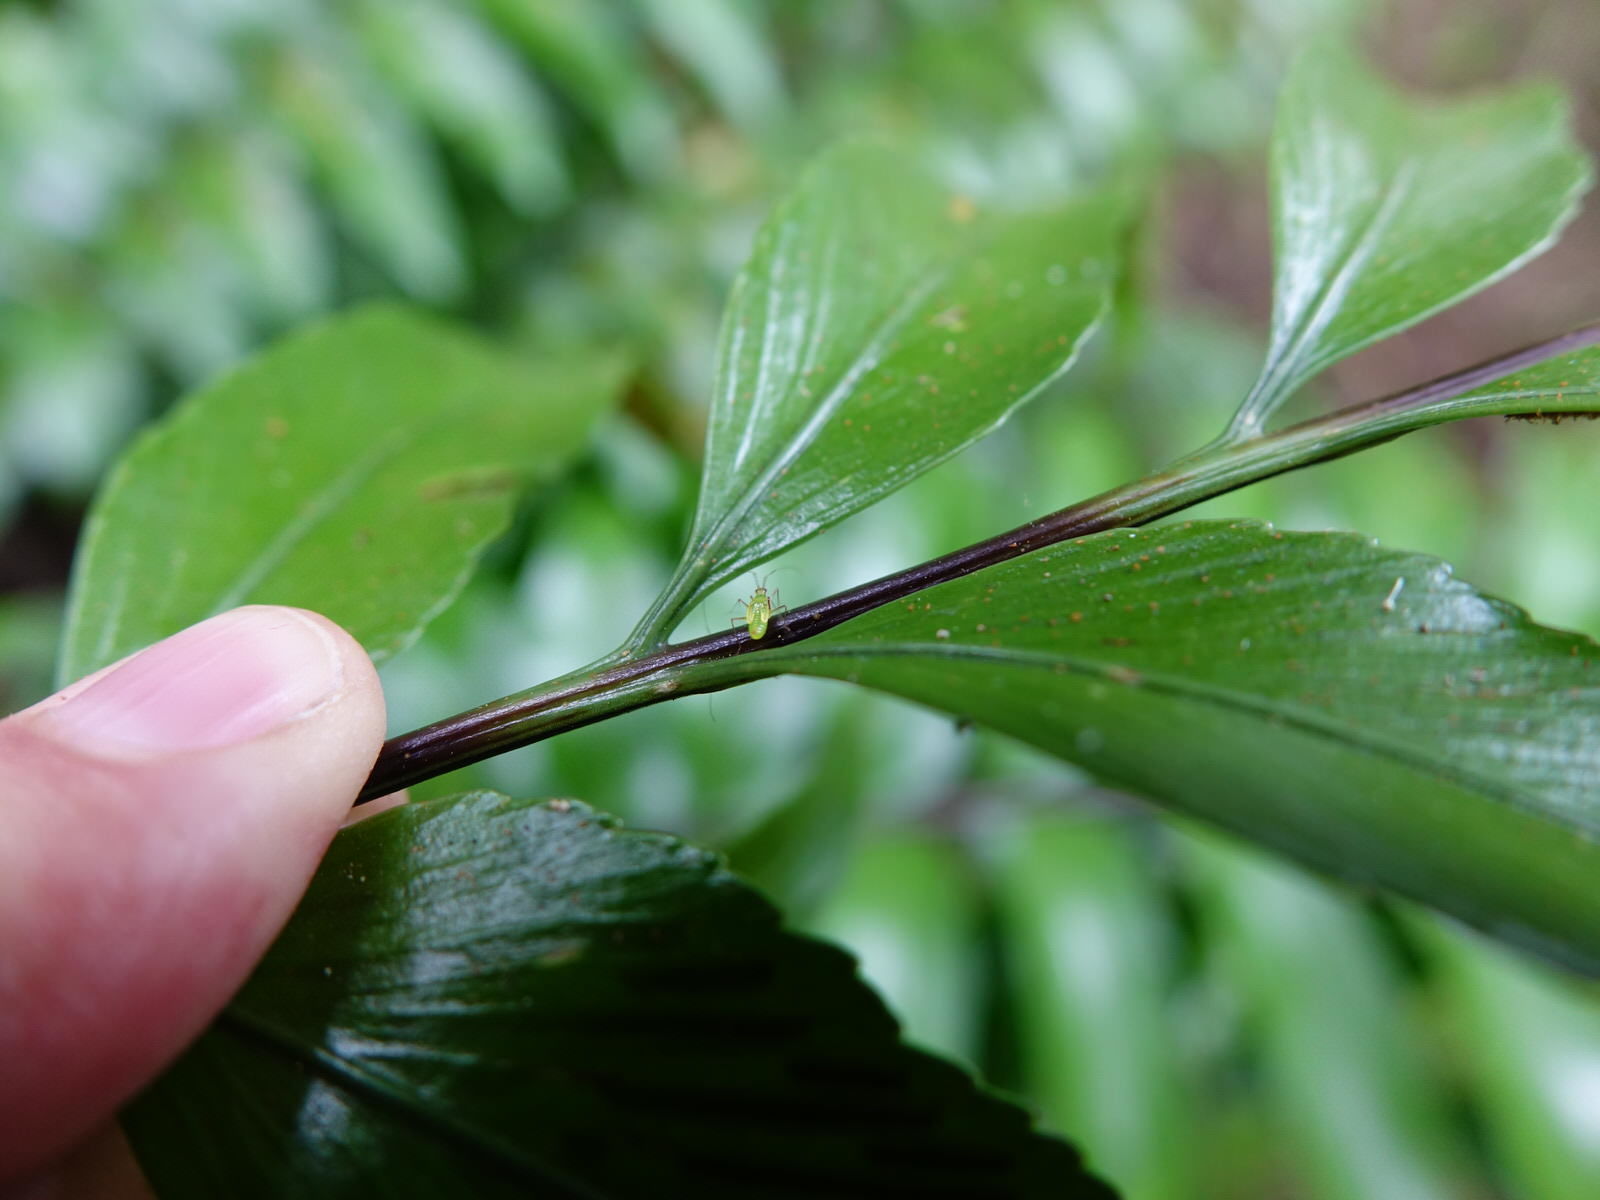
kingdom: Animalia
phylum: Arthropoda
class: Insecta
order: Hemiptera
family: Miridae
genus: Felisacus
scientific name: Felisacus elegantulus
